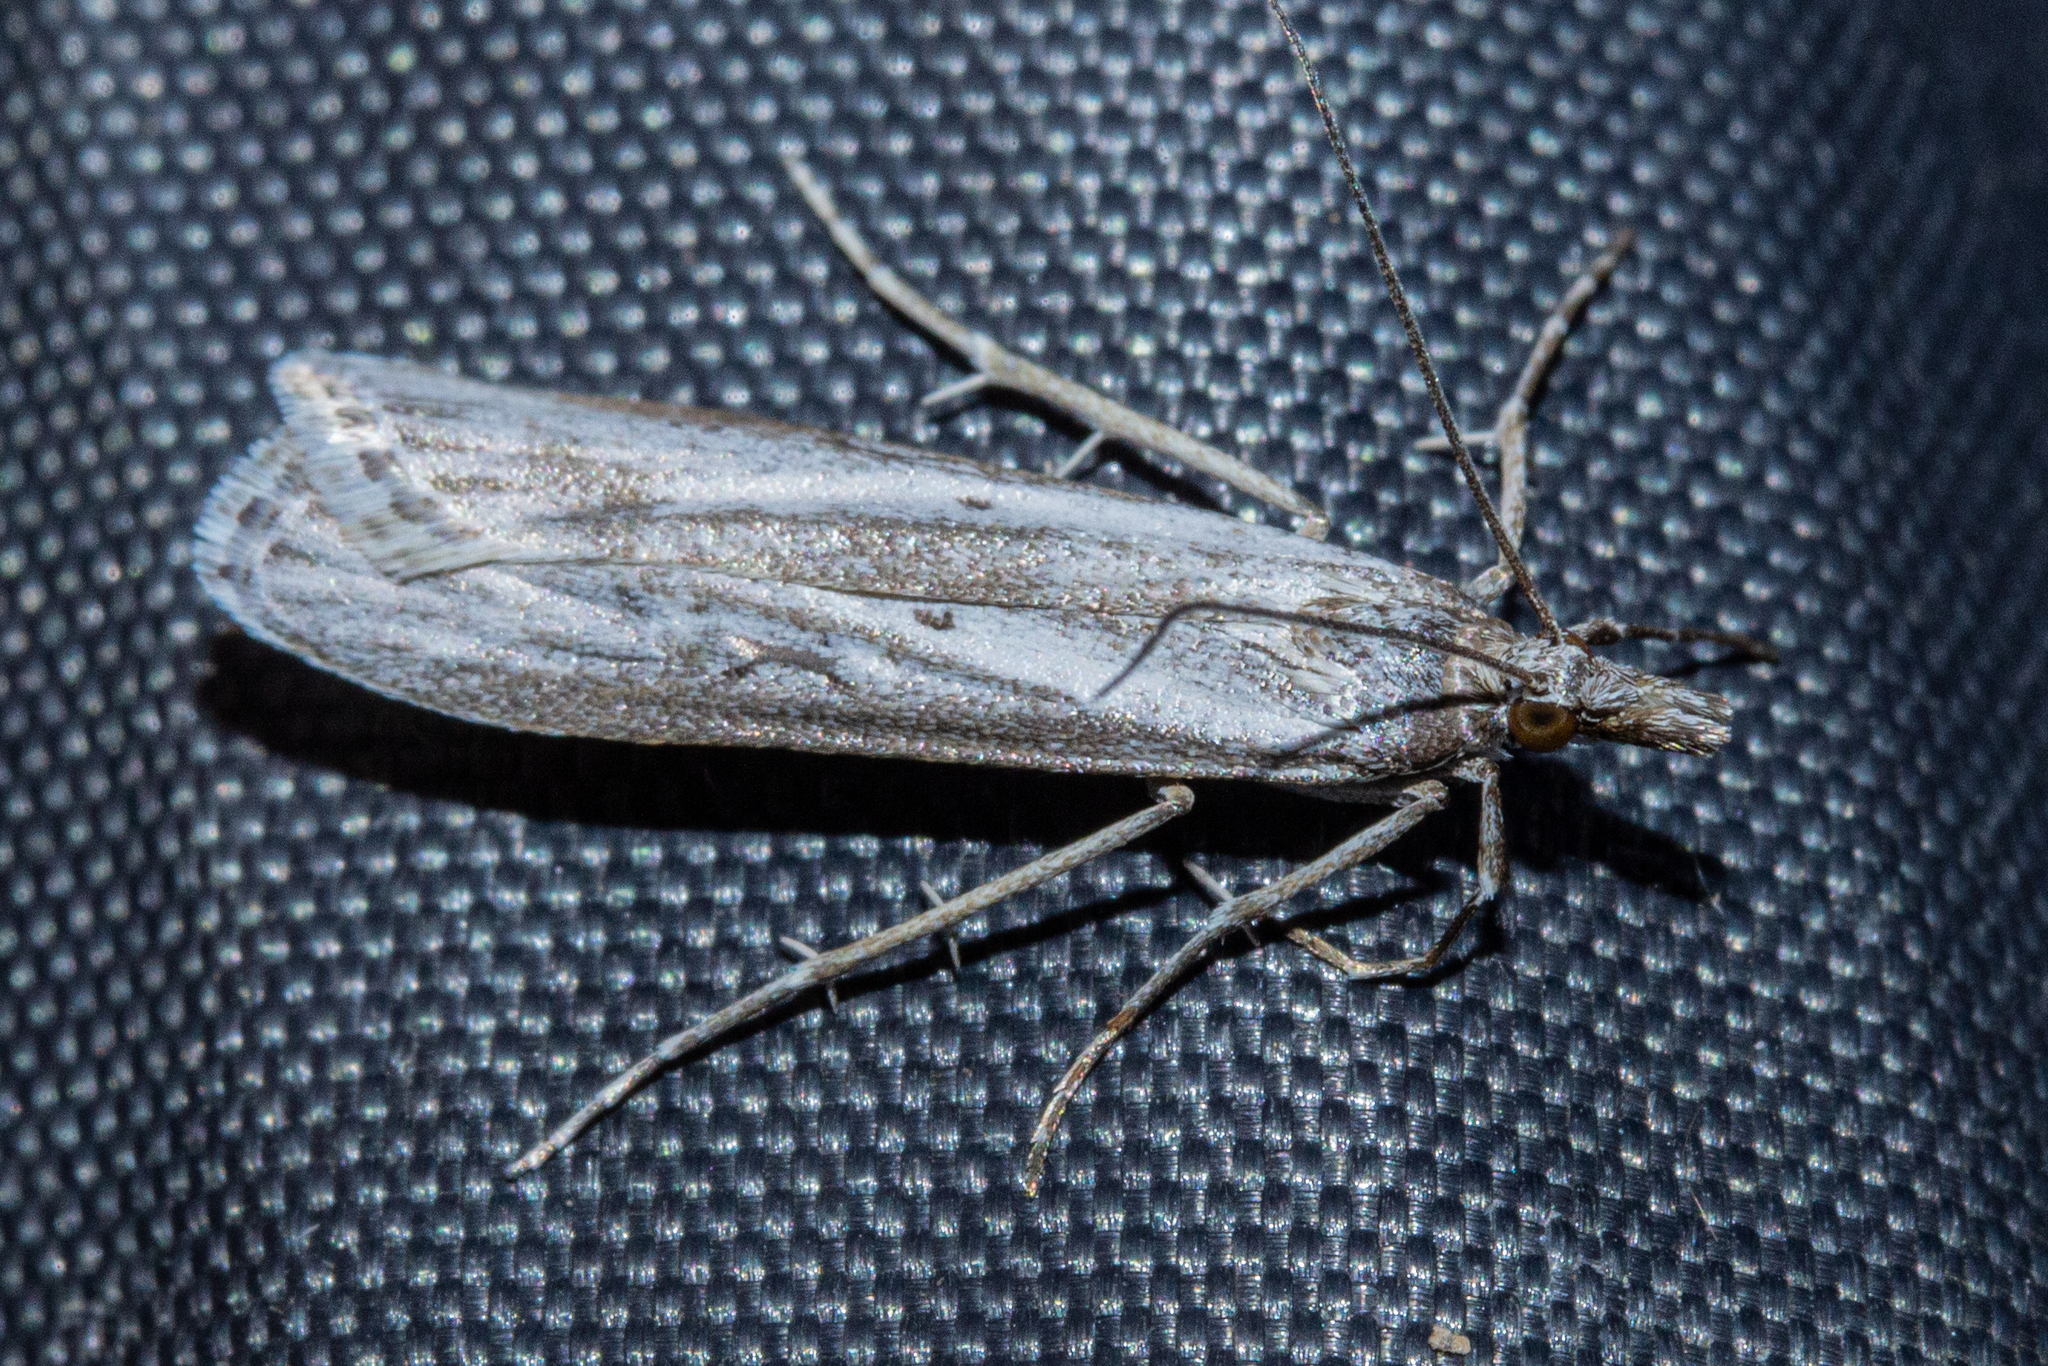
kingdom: Animalia
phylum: Arthropoda
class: Insecta
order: Lepidoptera
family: Crambidae
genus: Eudonia
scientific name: Eudonia leptalea
